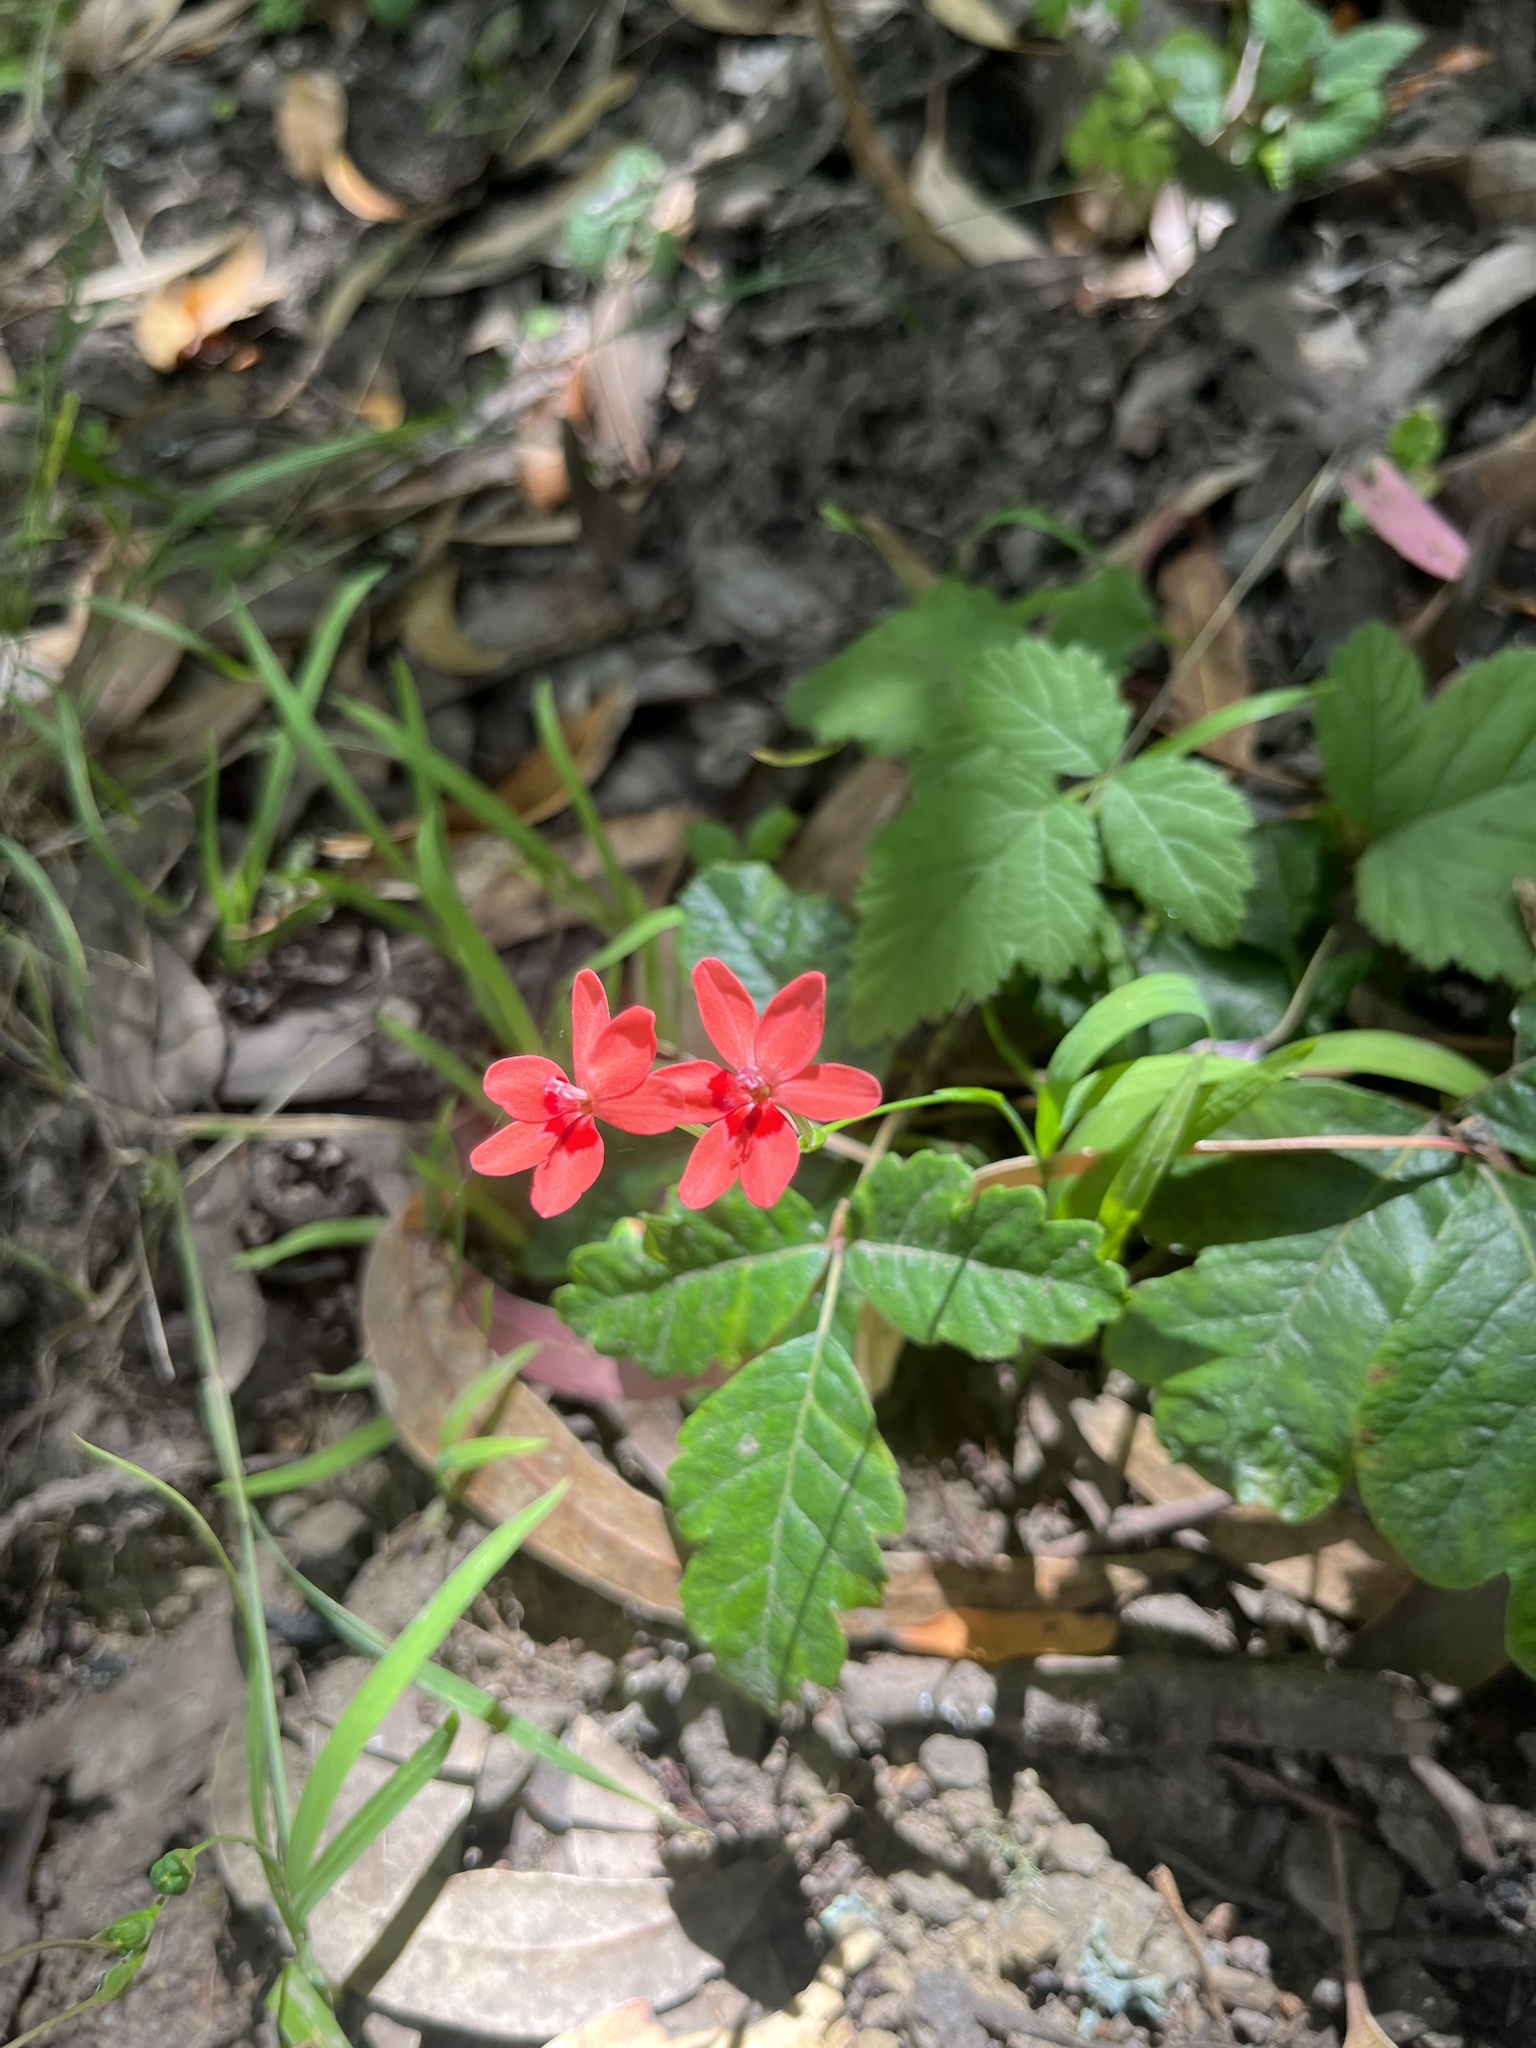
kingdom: Plantae
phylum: Tracheophyta
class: Liliopsida
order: Asparagales
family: Iridaceae
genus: Freesia
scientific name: Freesia laxa
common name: False freesia
